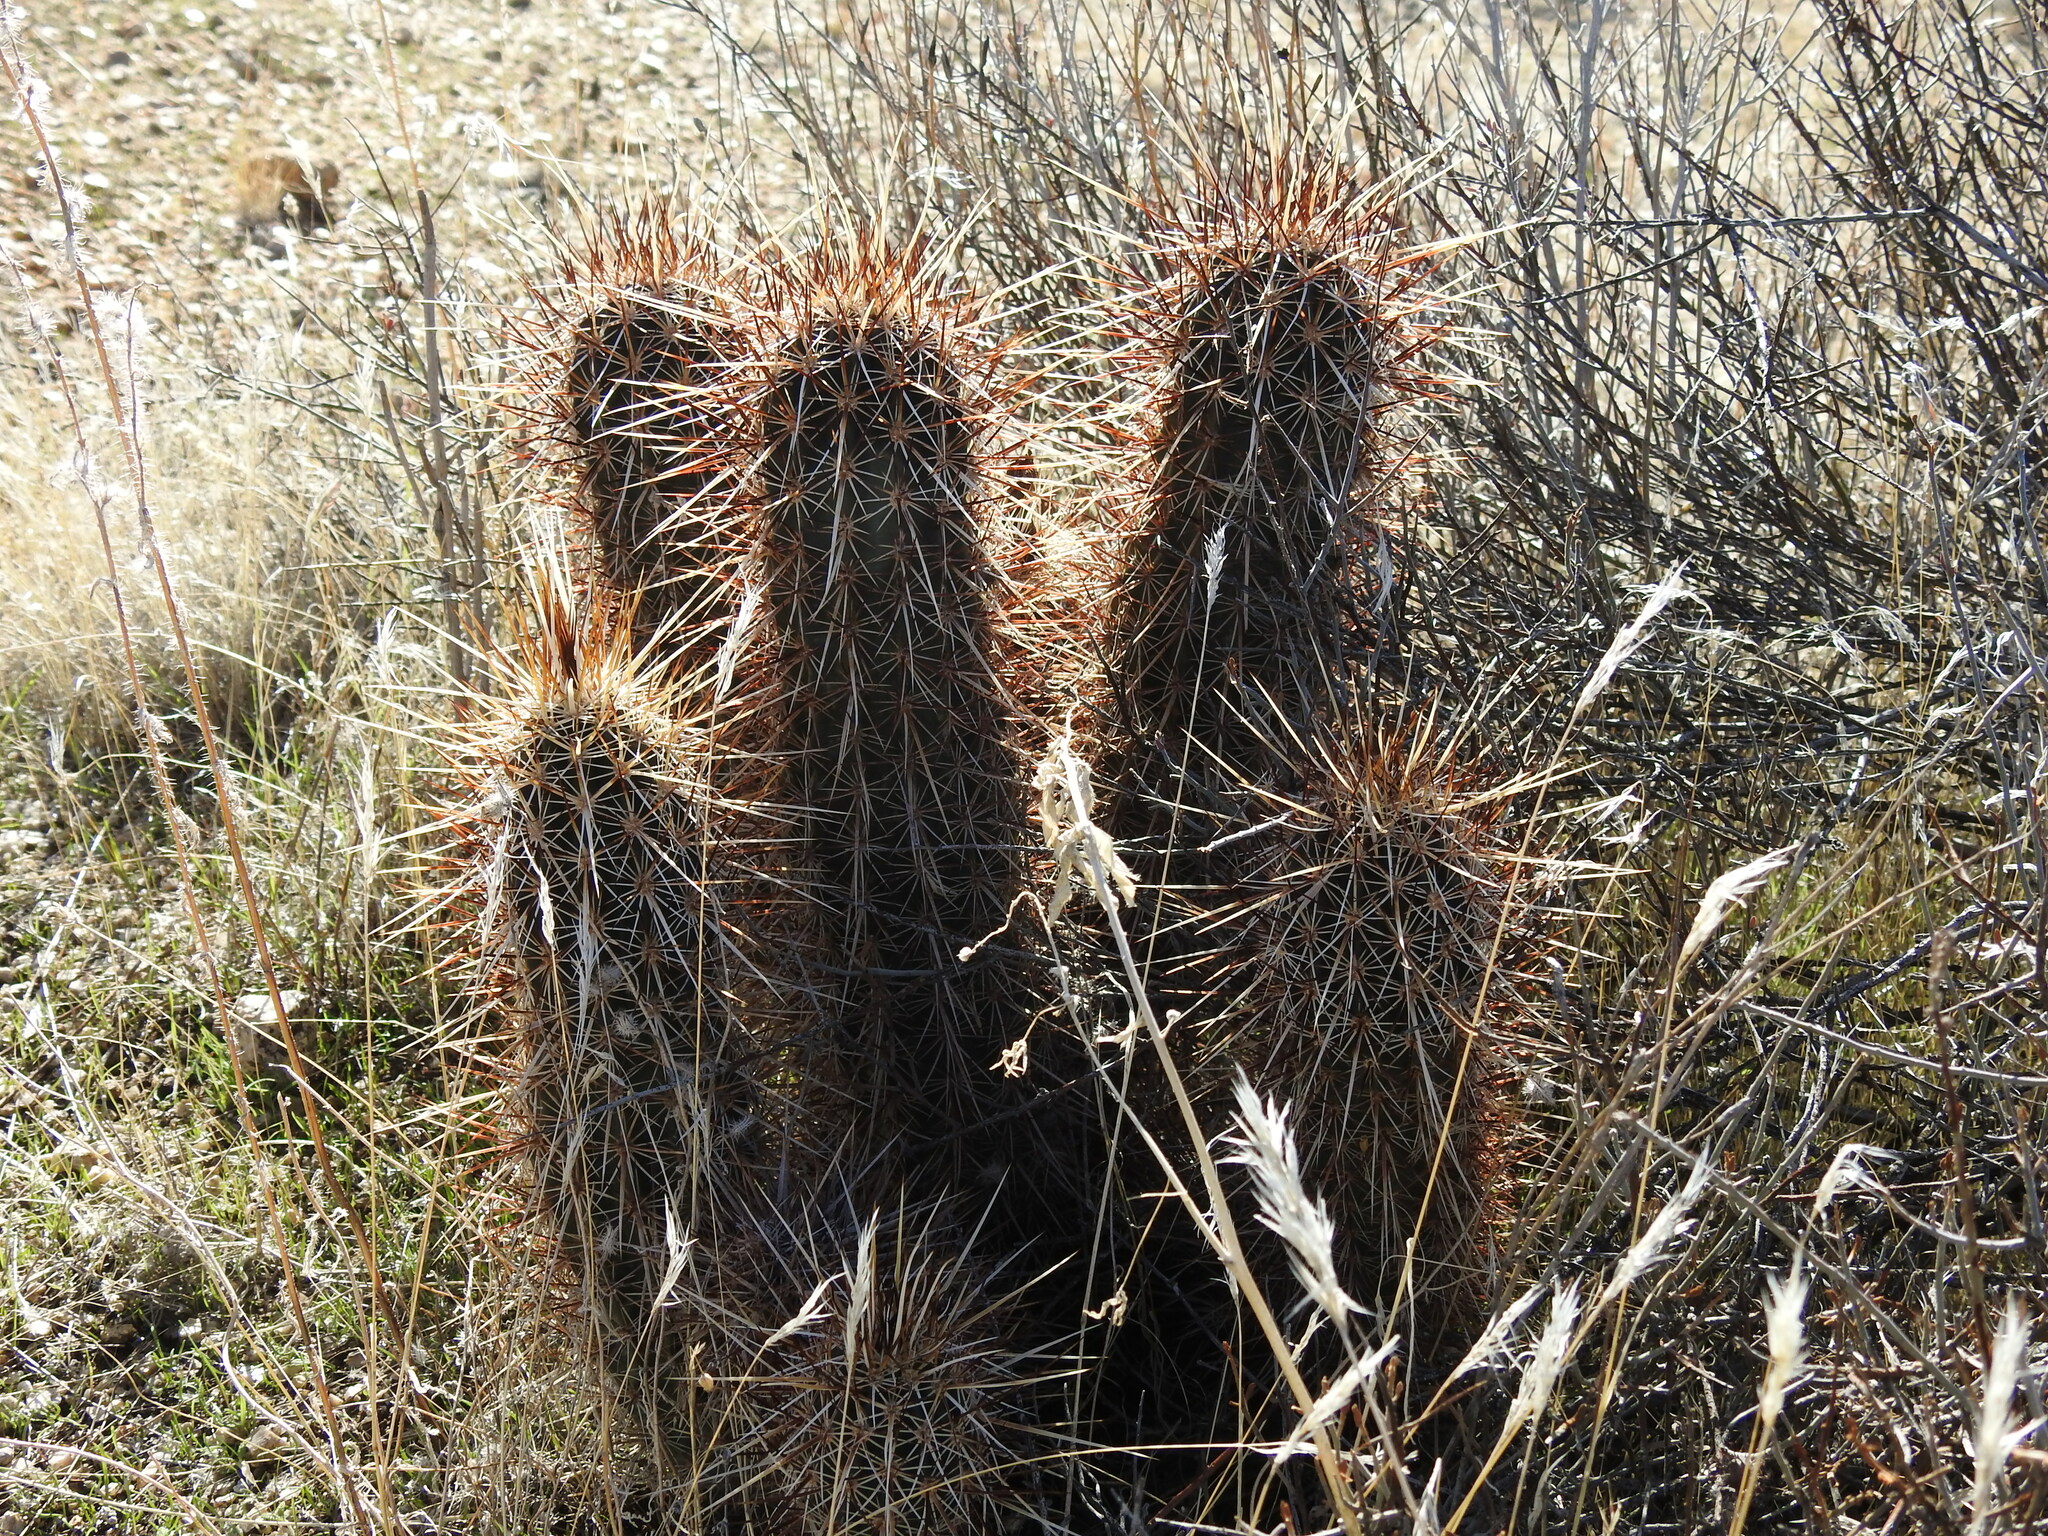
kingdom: Plantae
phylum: Tracheophyta
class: Magnoliopsida
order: Caryophyllales
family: Cactaceae
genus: Echinocereus
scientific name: Echinocereus engelmannii
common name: Engelmann's hedgehog cactus
